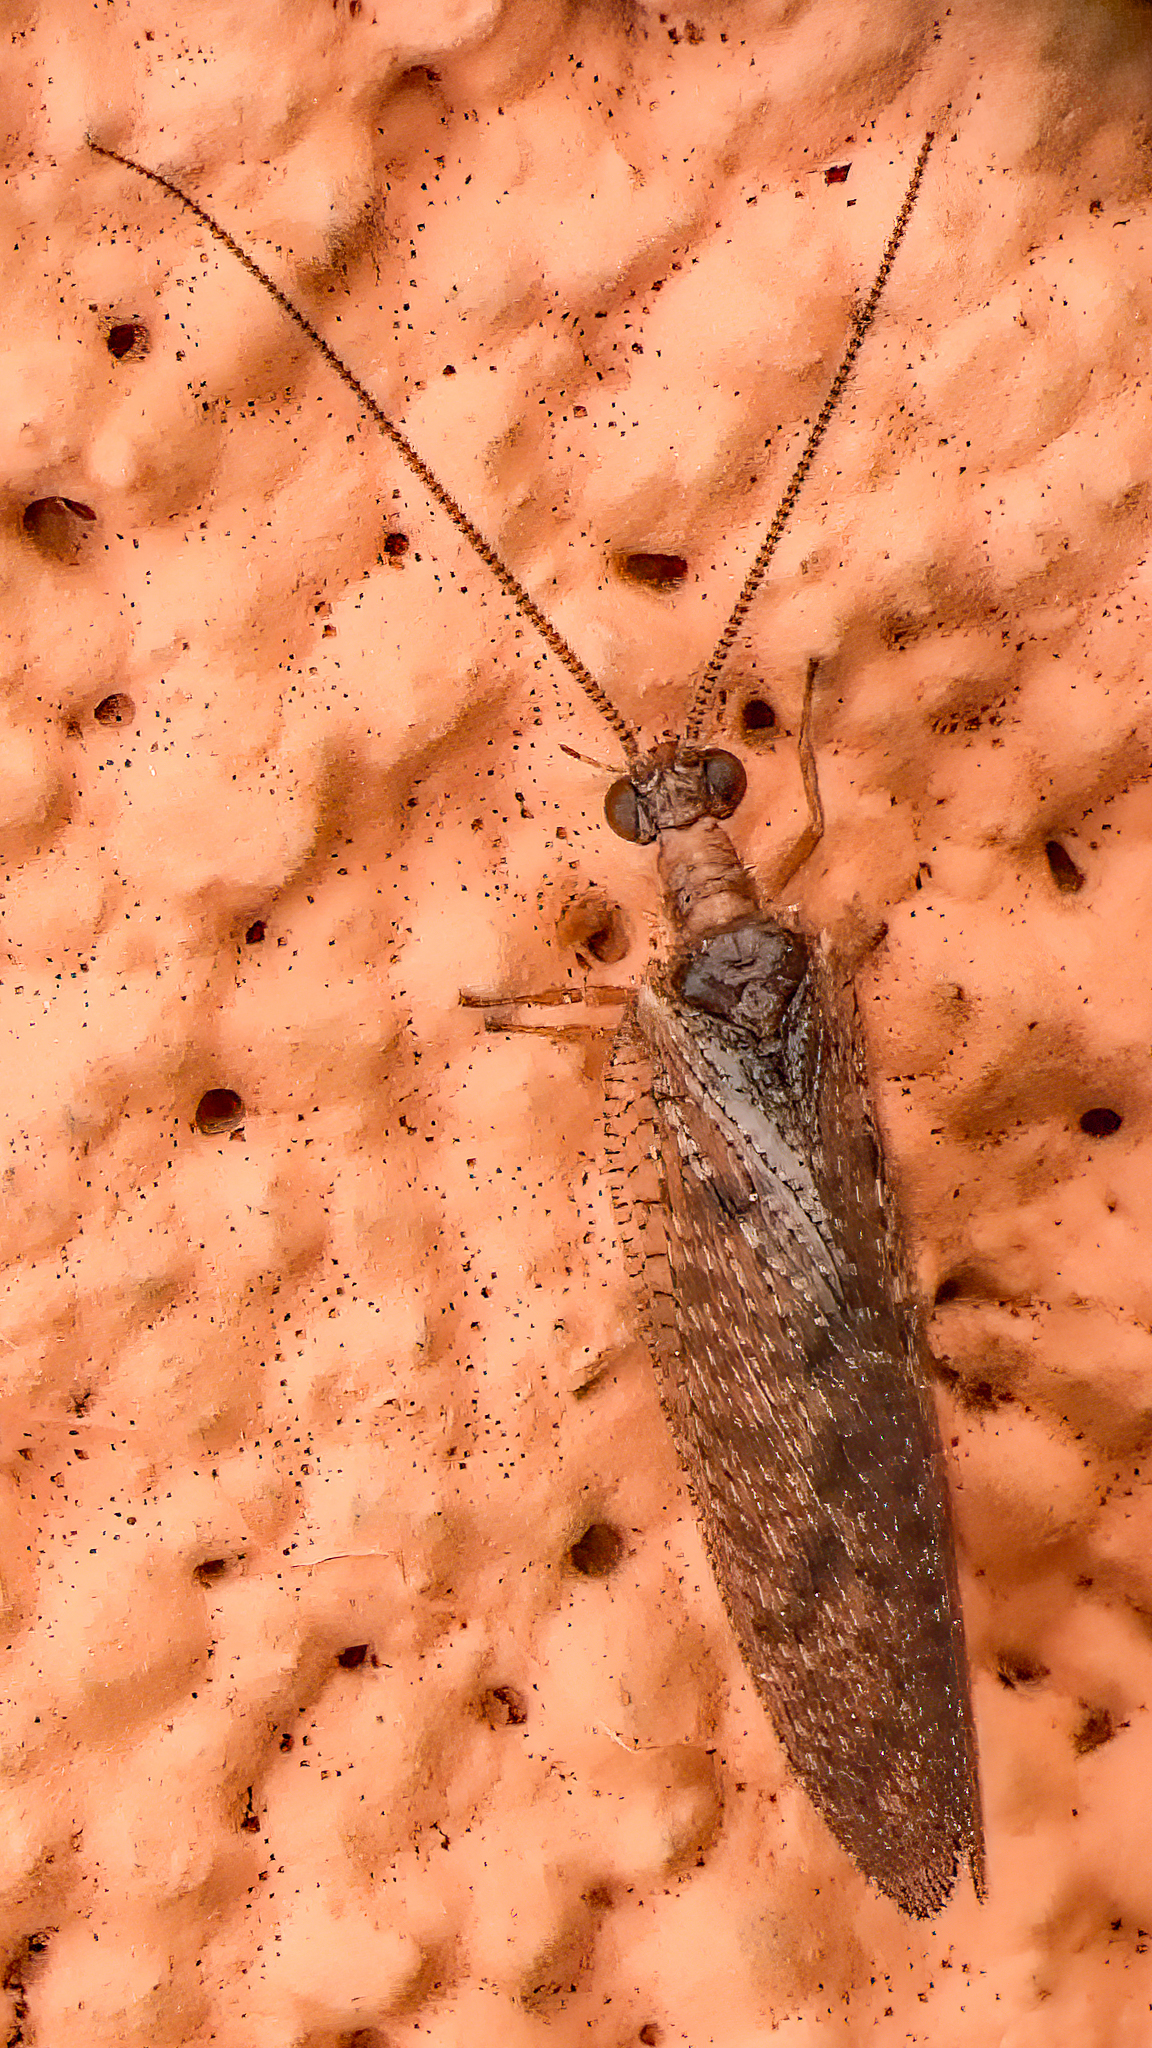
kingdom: Animalia
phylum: Arthropoda
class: Insecta
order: Neuroptera
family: Hemerobiidae
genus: Hemerobius
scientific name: Hemerobius stigma
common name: Brown pine lacewing
